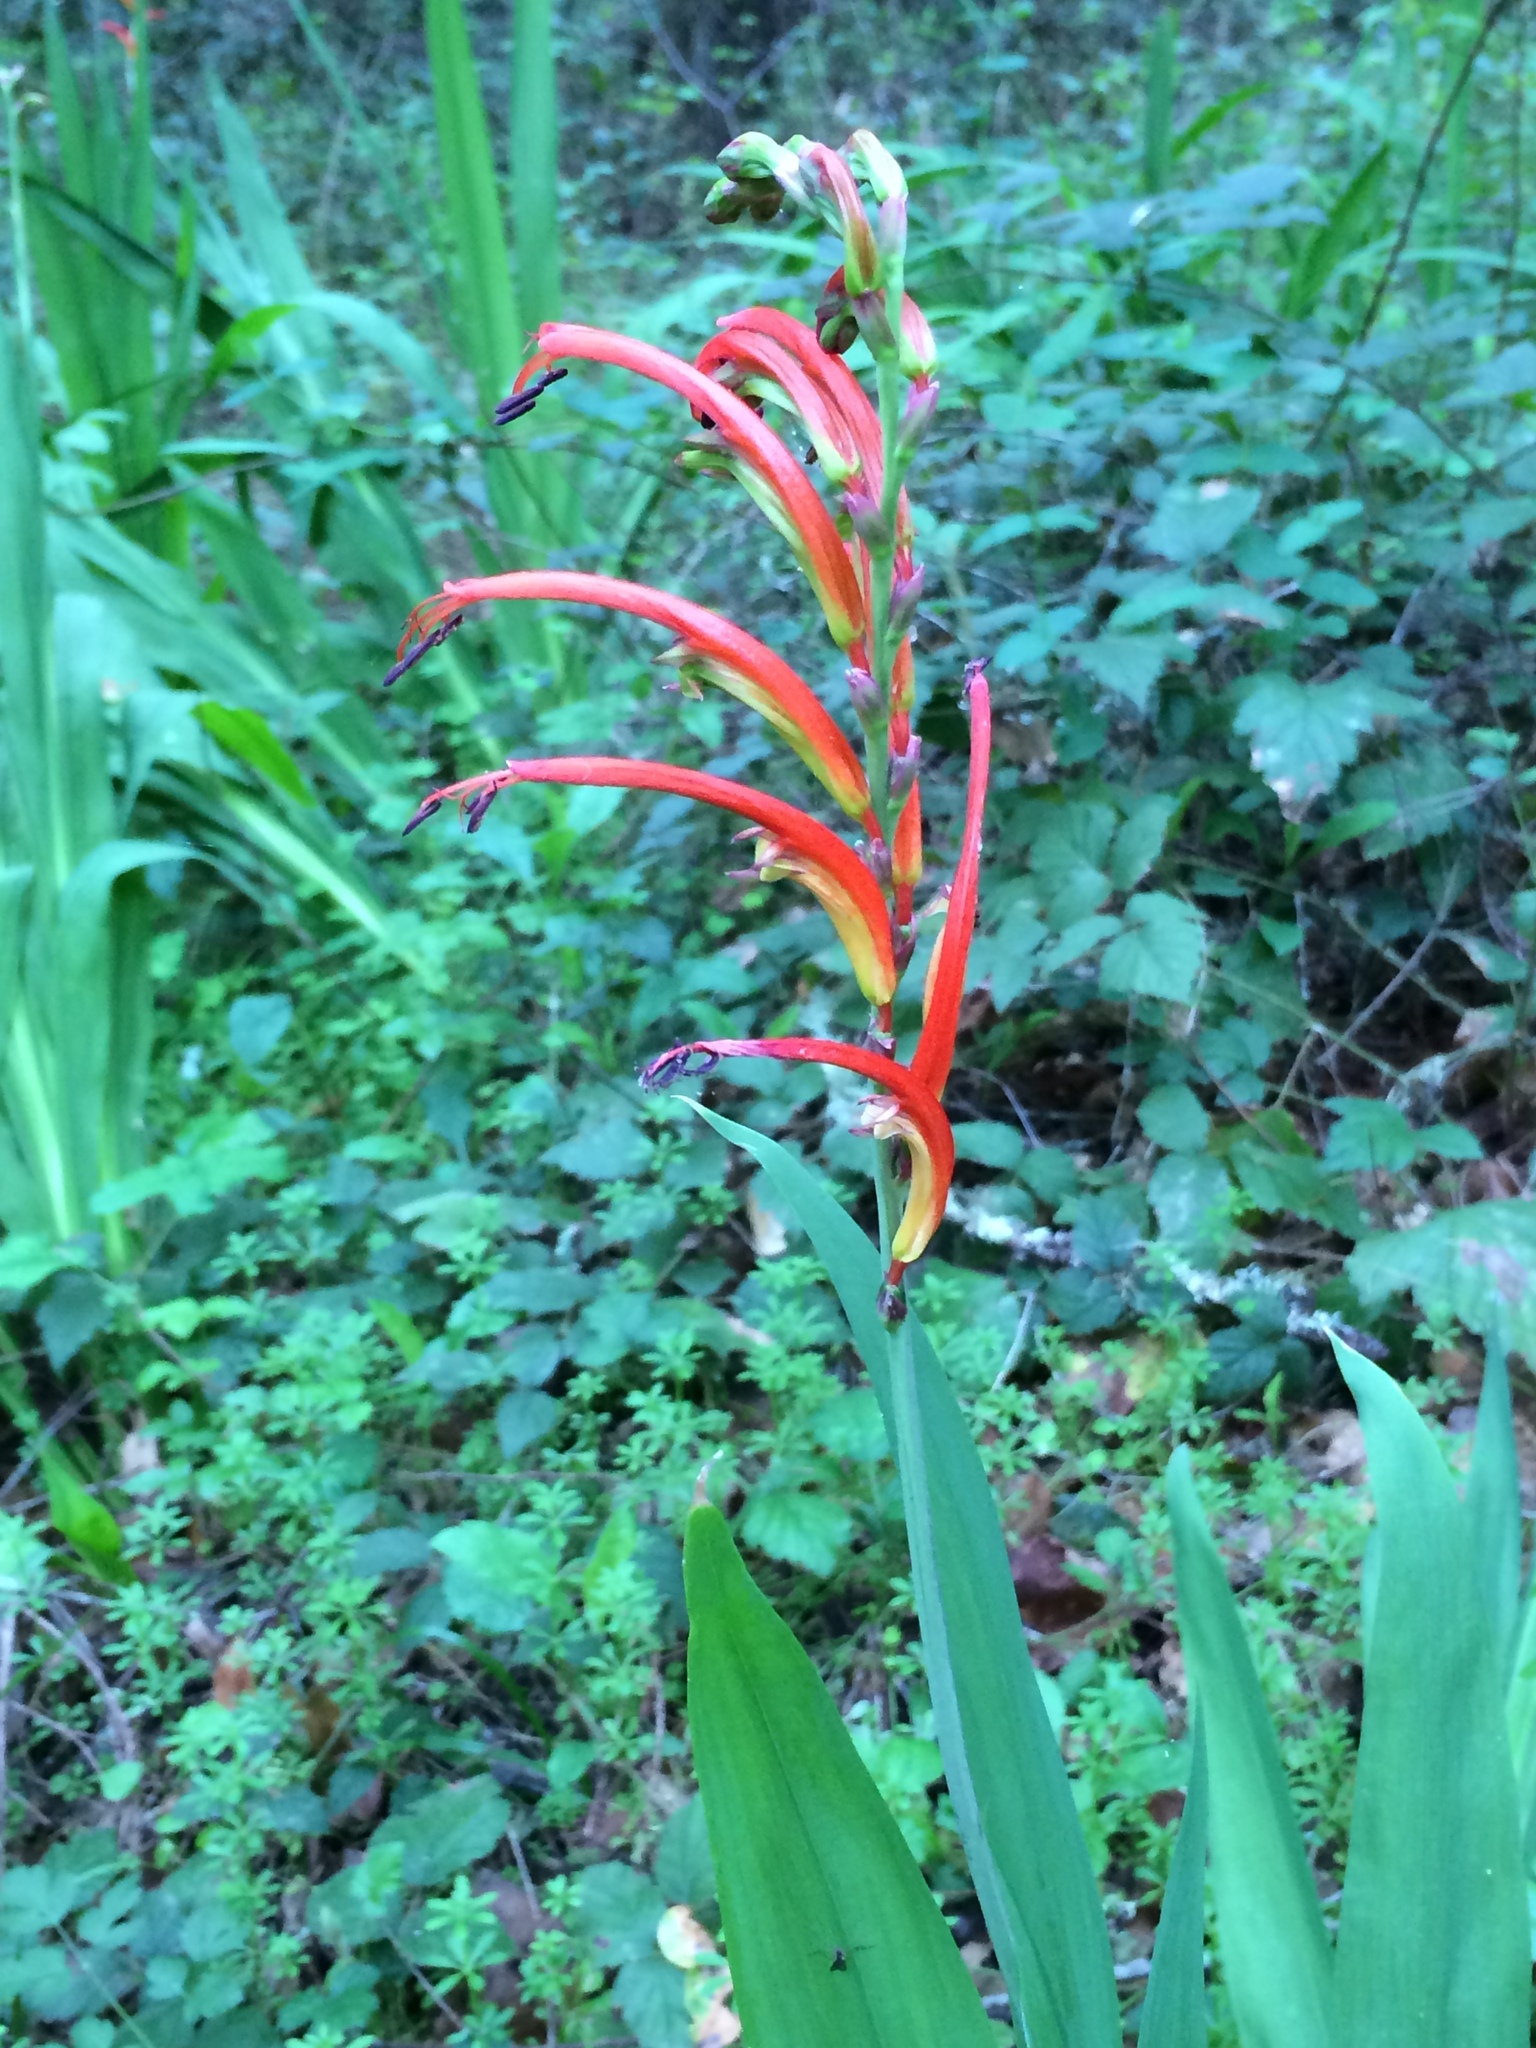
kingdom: Plantae
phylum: Tracheophyta
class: Liliopsida
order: Asparagales
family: Iridaceae
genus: Chasmanthe
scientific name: Chasmanthe bicolor
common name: Bicolor cobra lily
